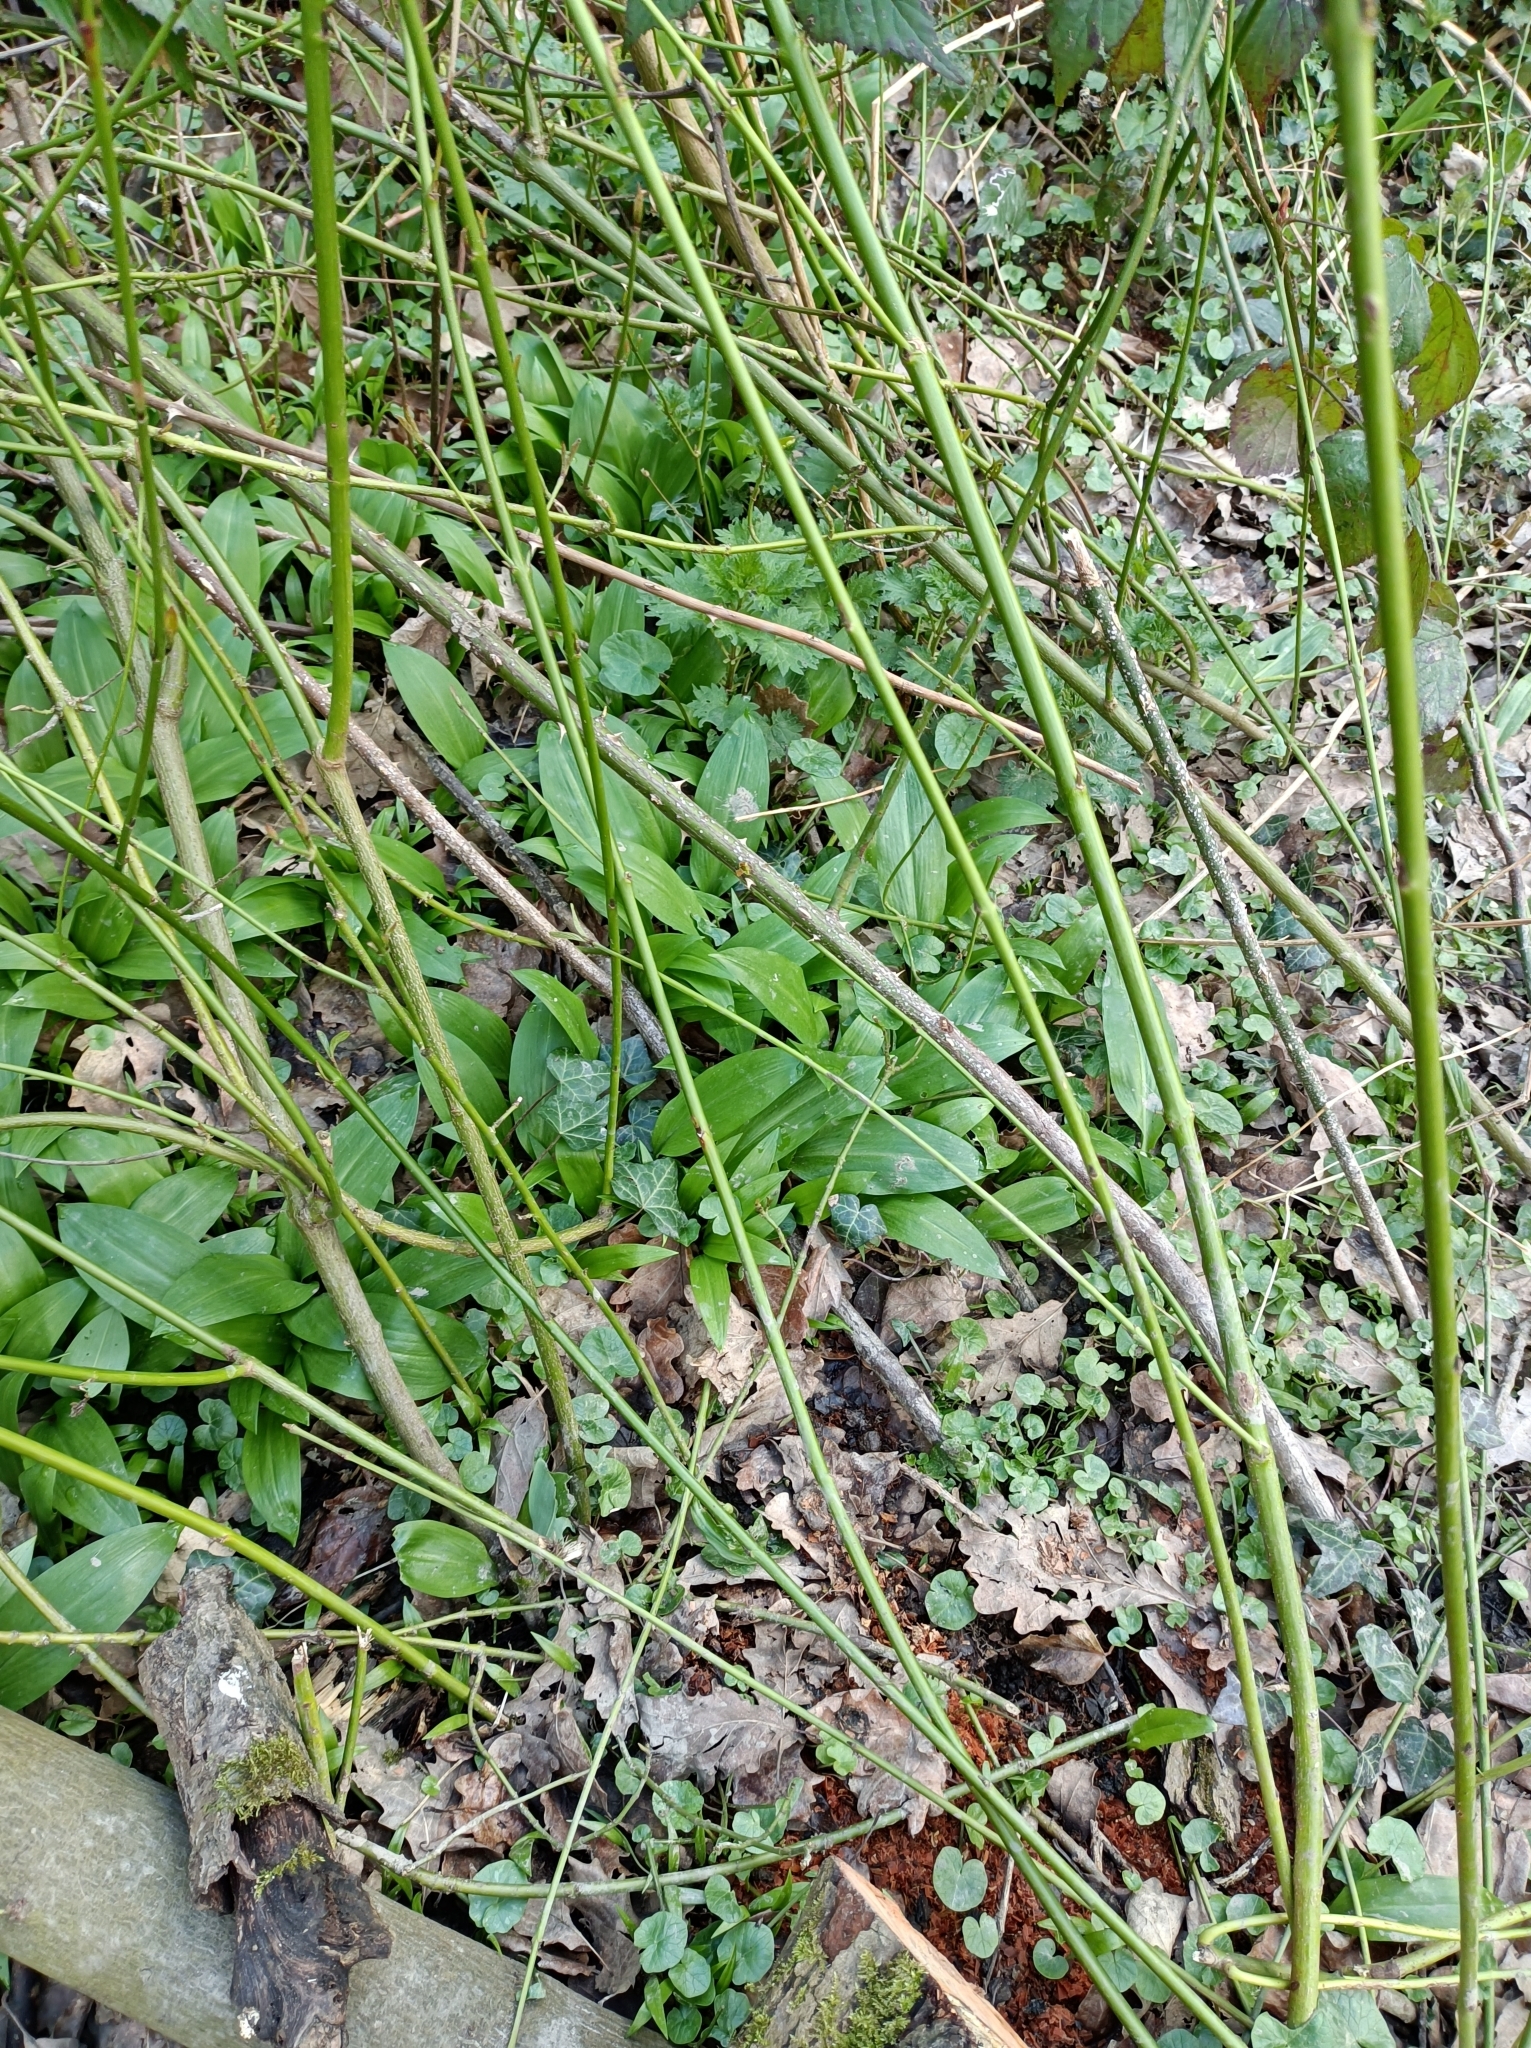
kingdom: Plantae
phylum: Tracheophyta
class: Liliopsida
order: Asparagales
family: Amaryllidaceae
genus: Allium
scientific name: Allium ursinum
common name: Ramsons
